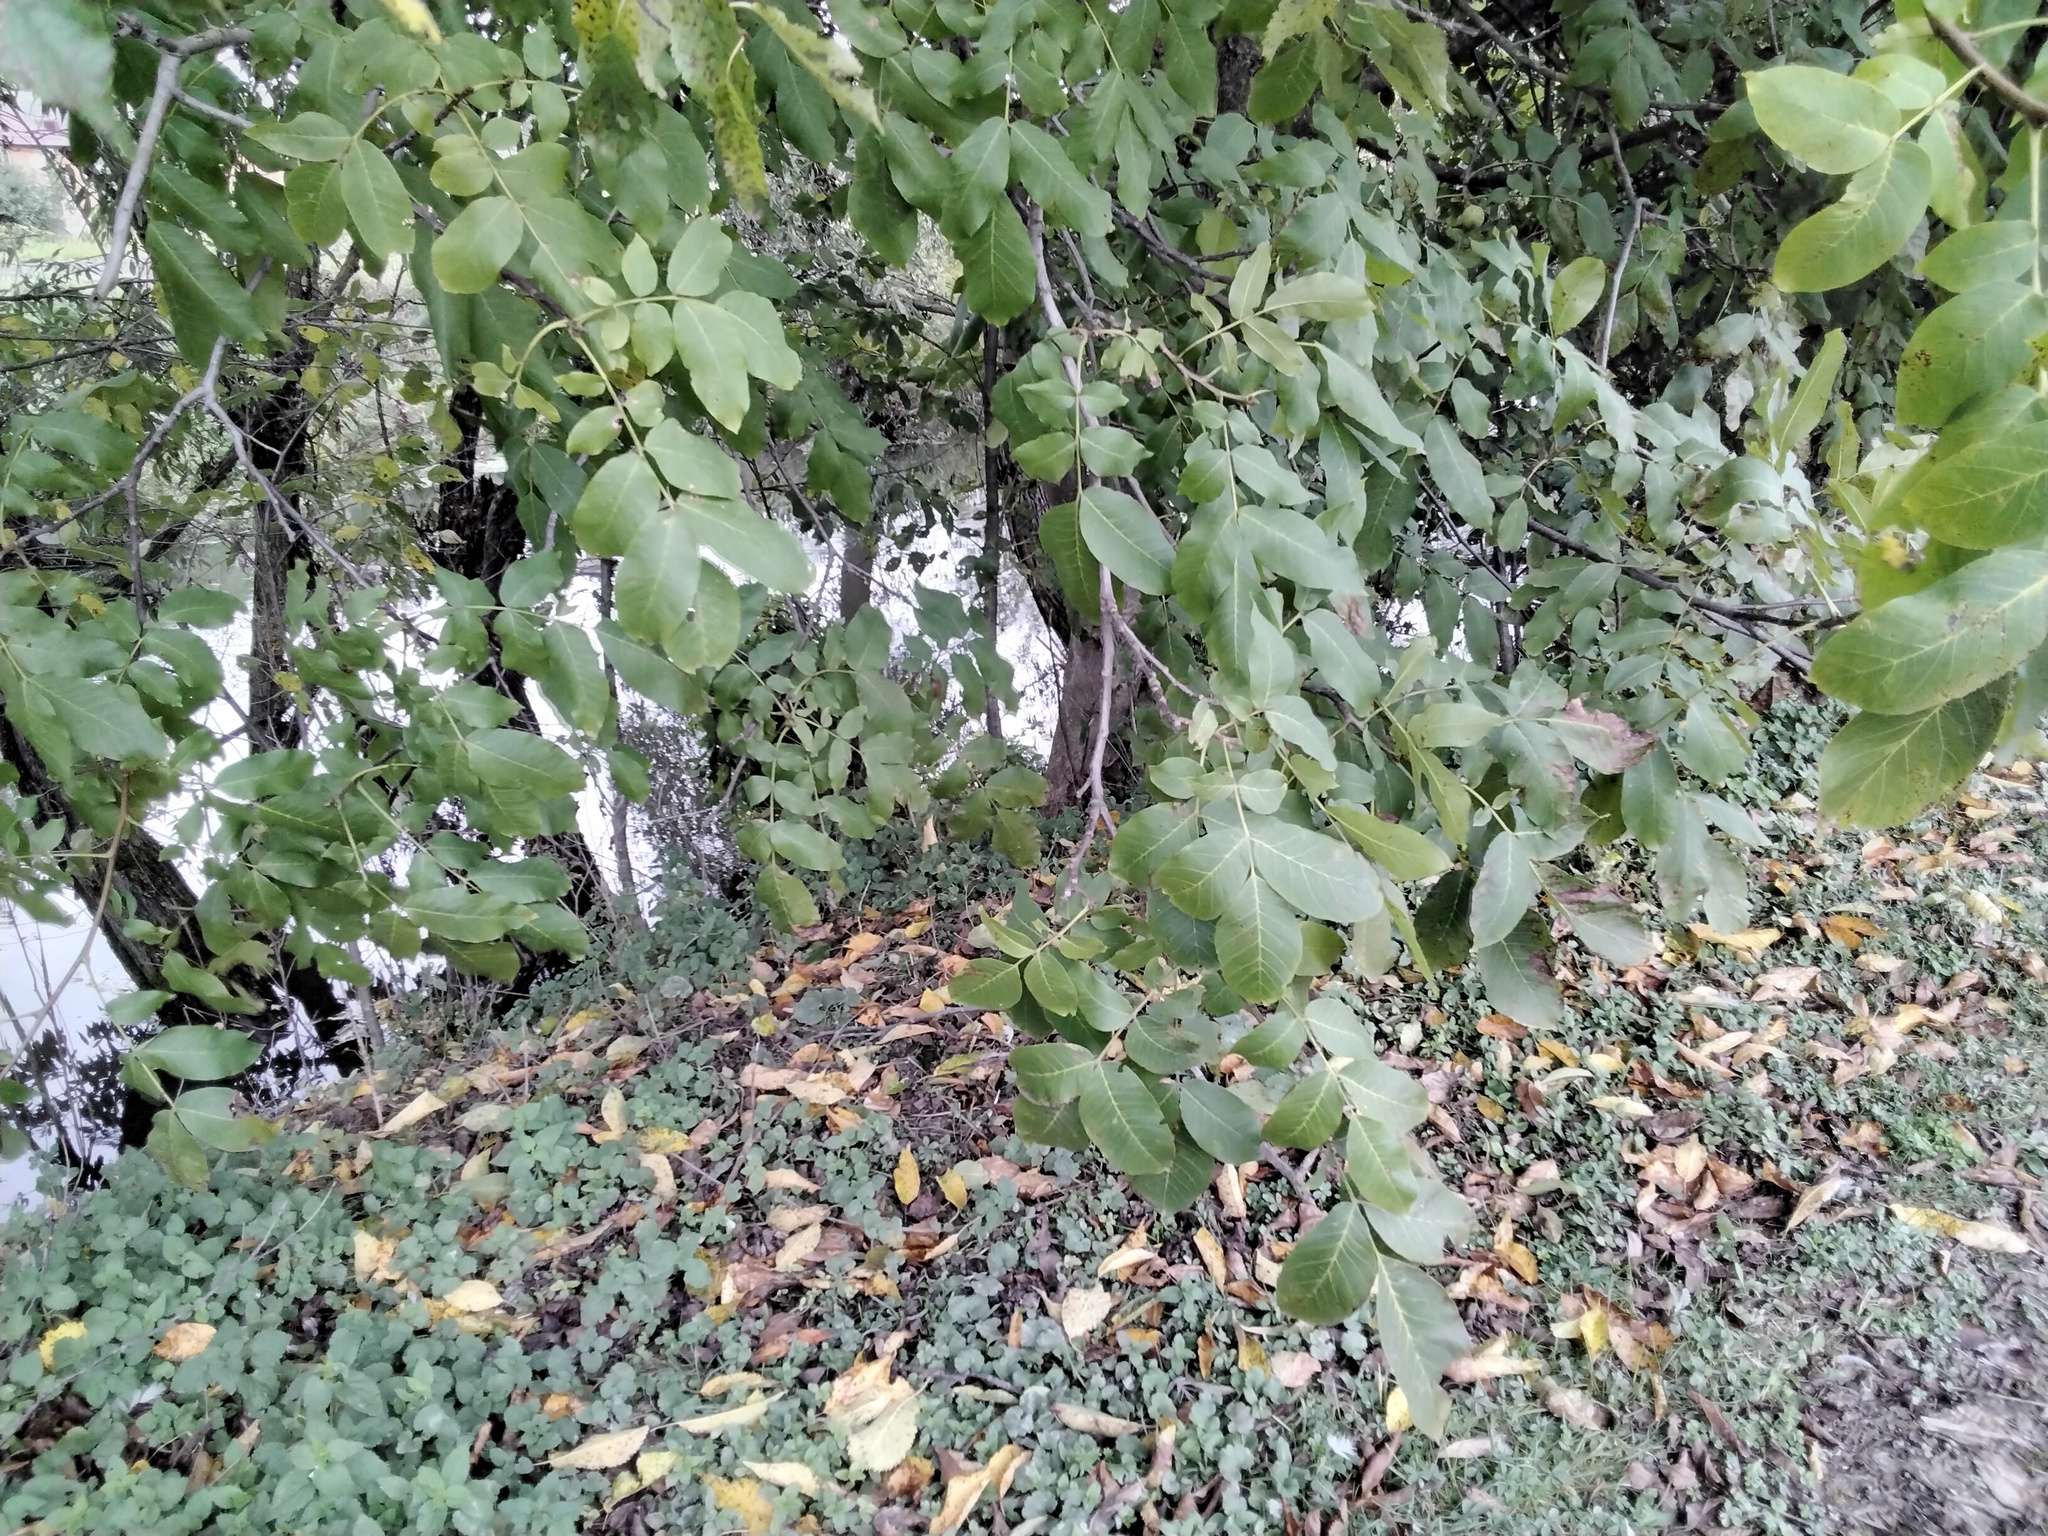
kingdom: Plantae
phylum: Tracheophyta
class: Magnoliopsida
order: Fagales
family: Juglandaceae
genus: Juglans
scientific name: Juglans regia
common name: Walnut
